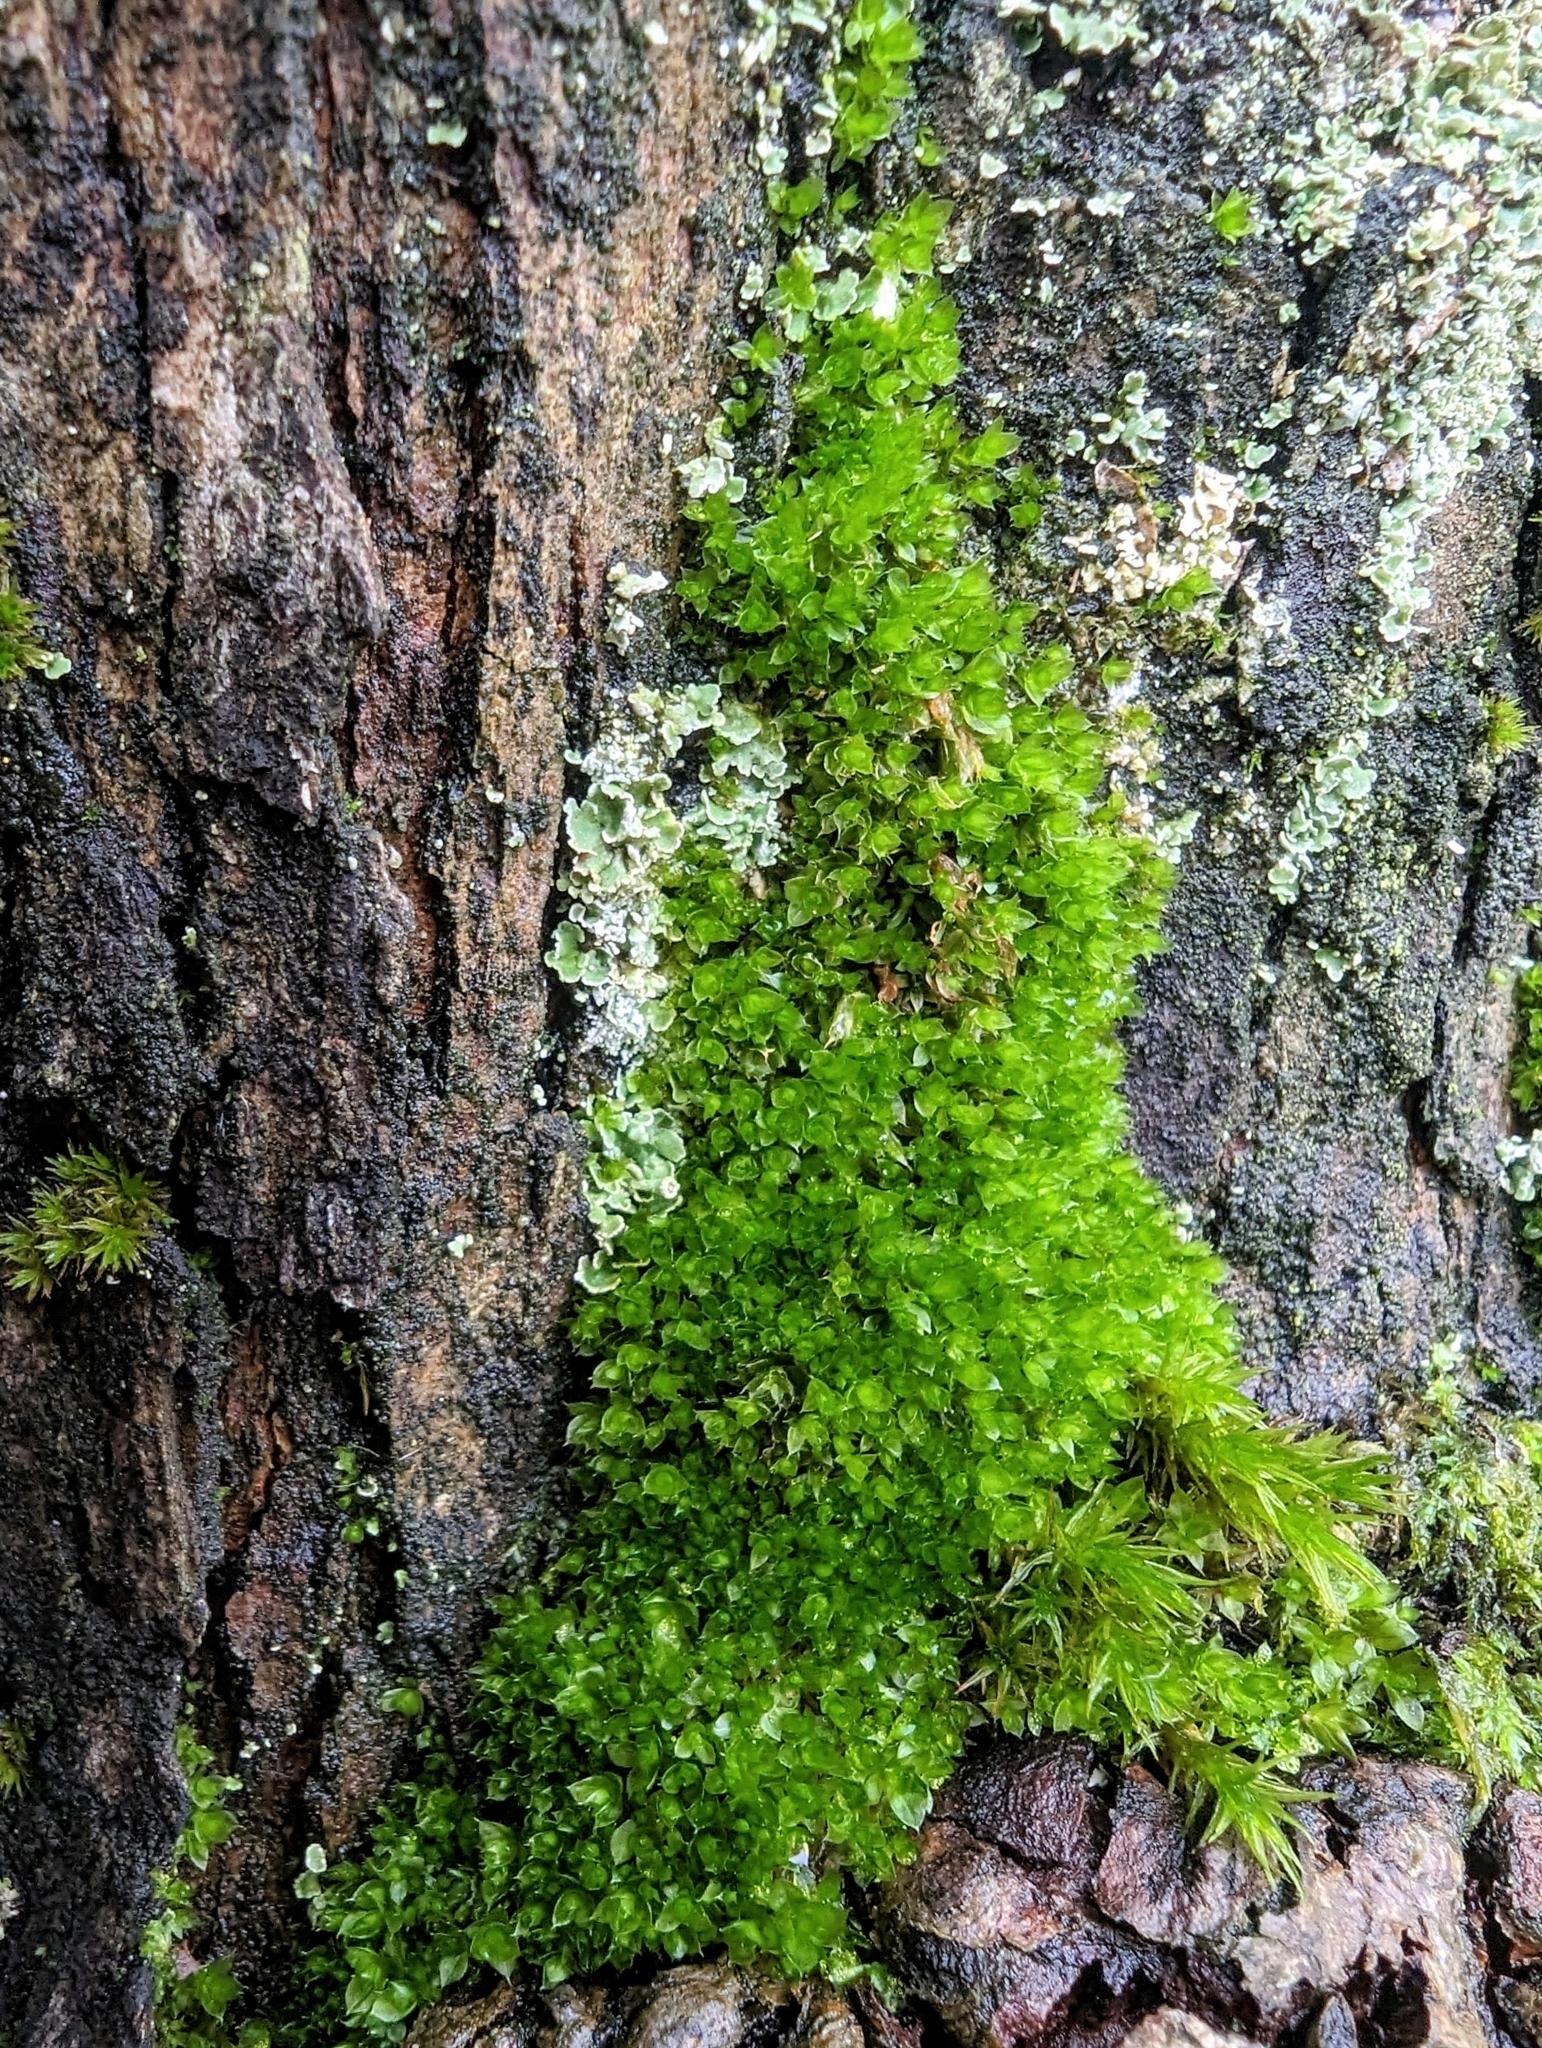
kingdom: Plantae
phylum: Bryophyta
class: Bryopsida
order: Bryales
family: Bryaceae
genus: Rosulabryum
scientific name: Rosulabryum capillare
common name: Capillary thread-moss
